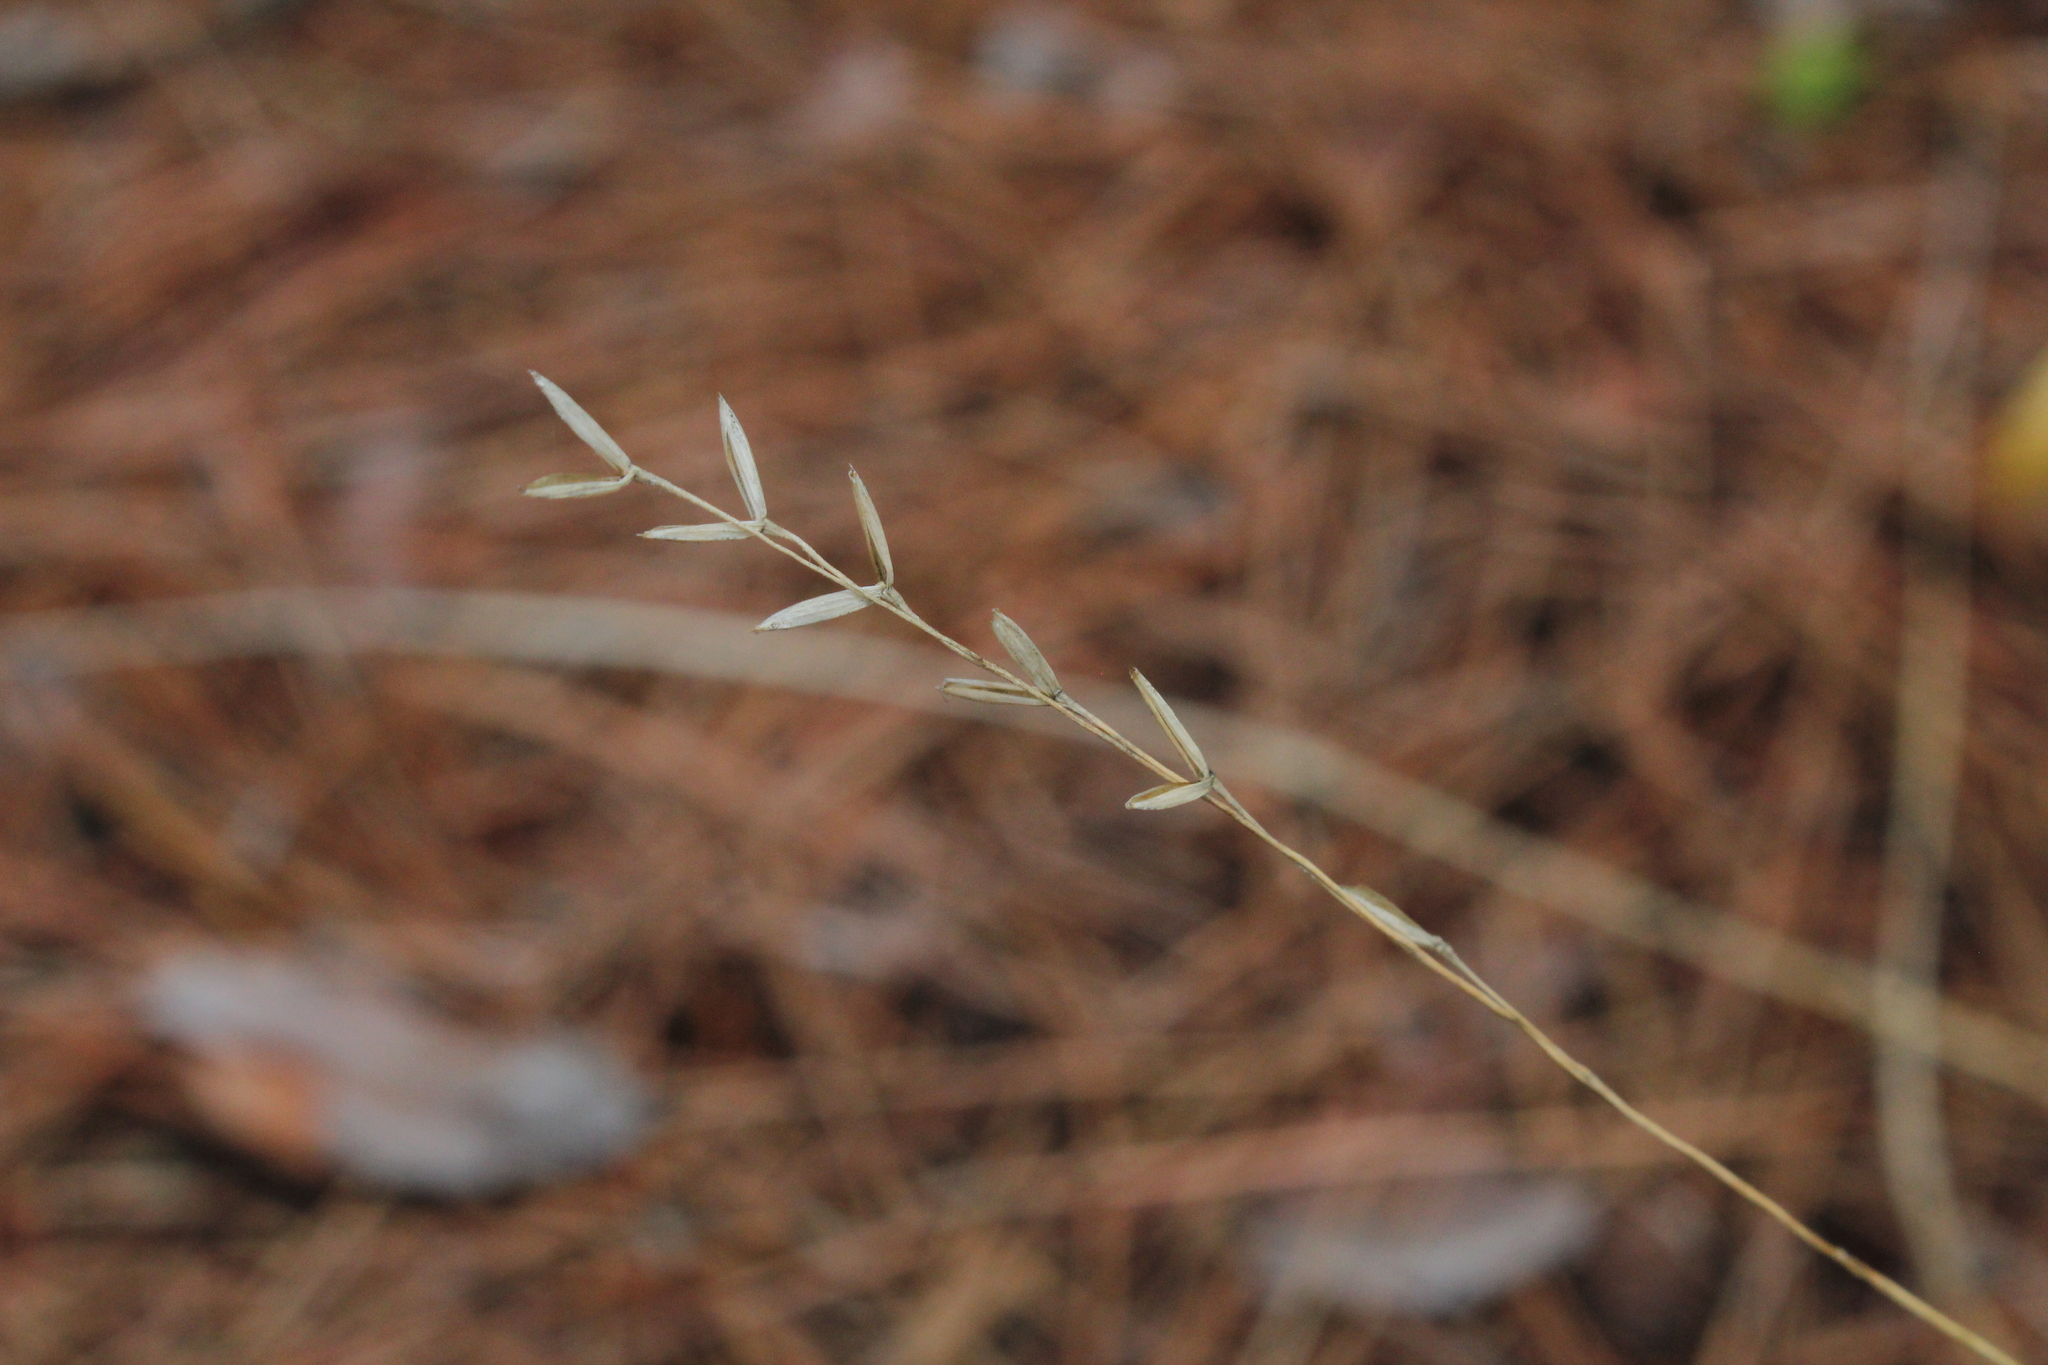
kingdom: Plantae
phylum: Tracheophyta
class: Liliopsida
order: Poales
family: Poaceae
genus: Oryzopsis
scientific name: Oryzopsis asperifolia
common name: Rough-leaved mountain rice
